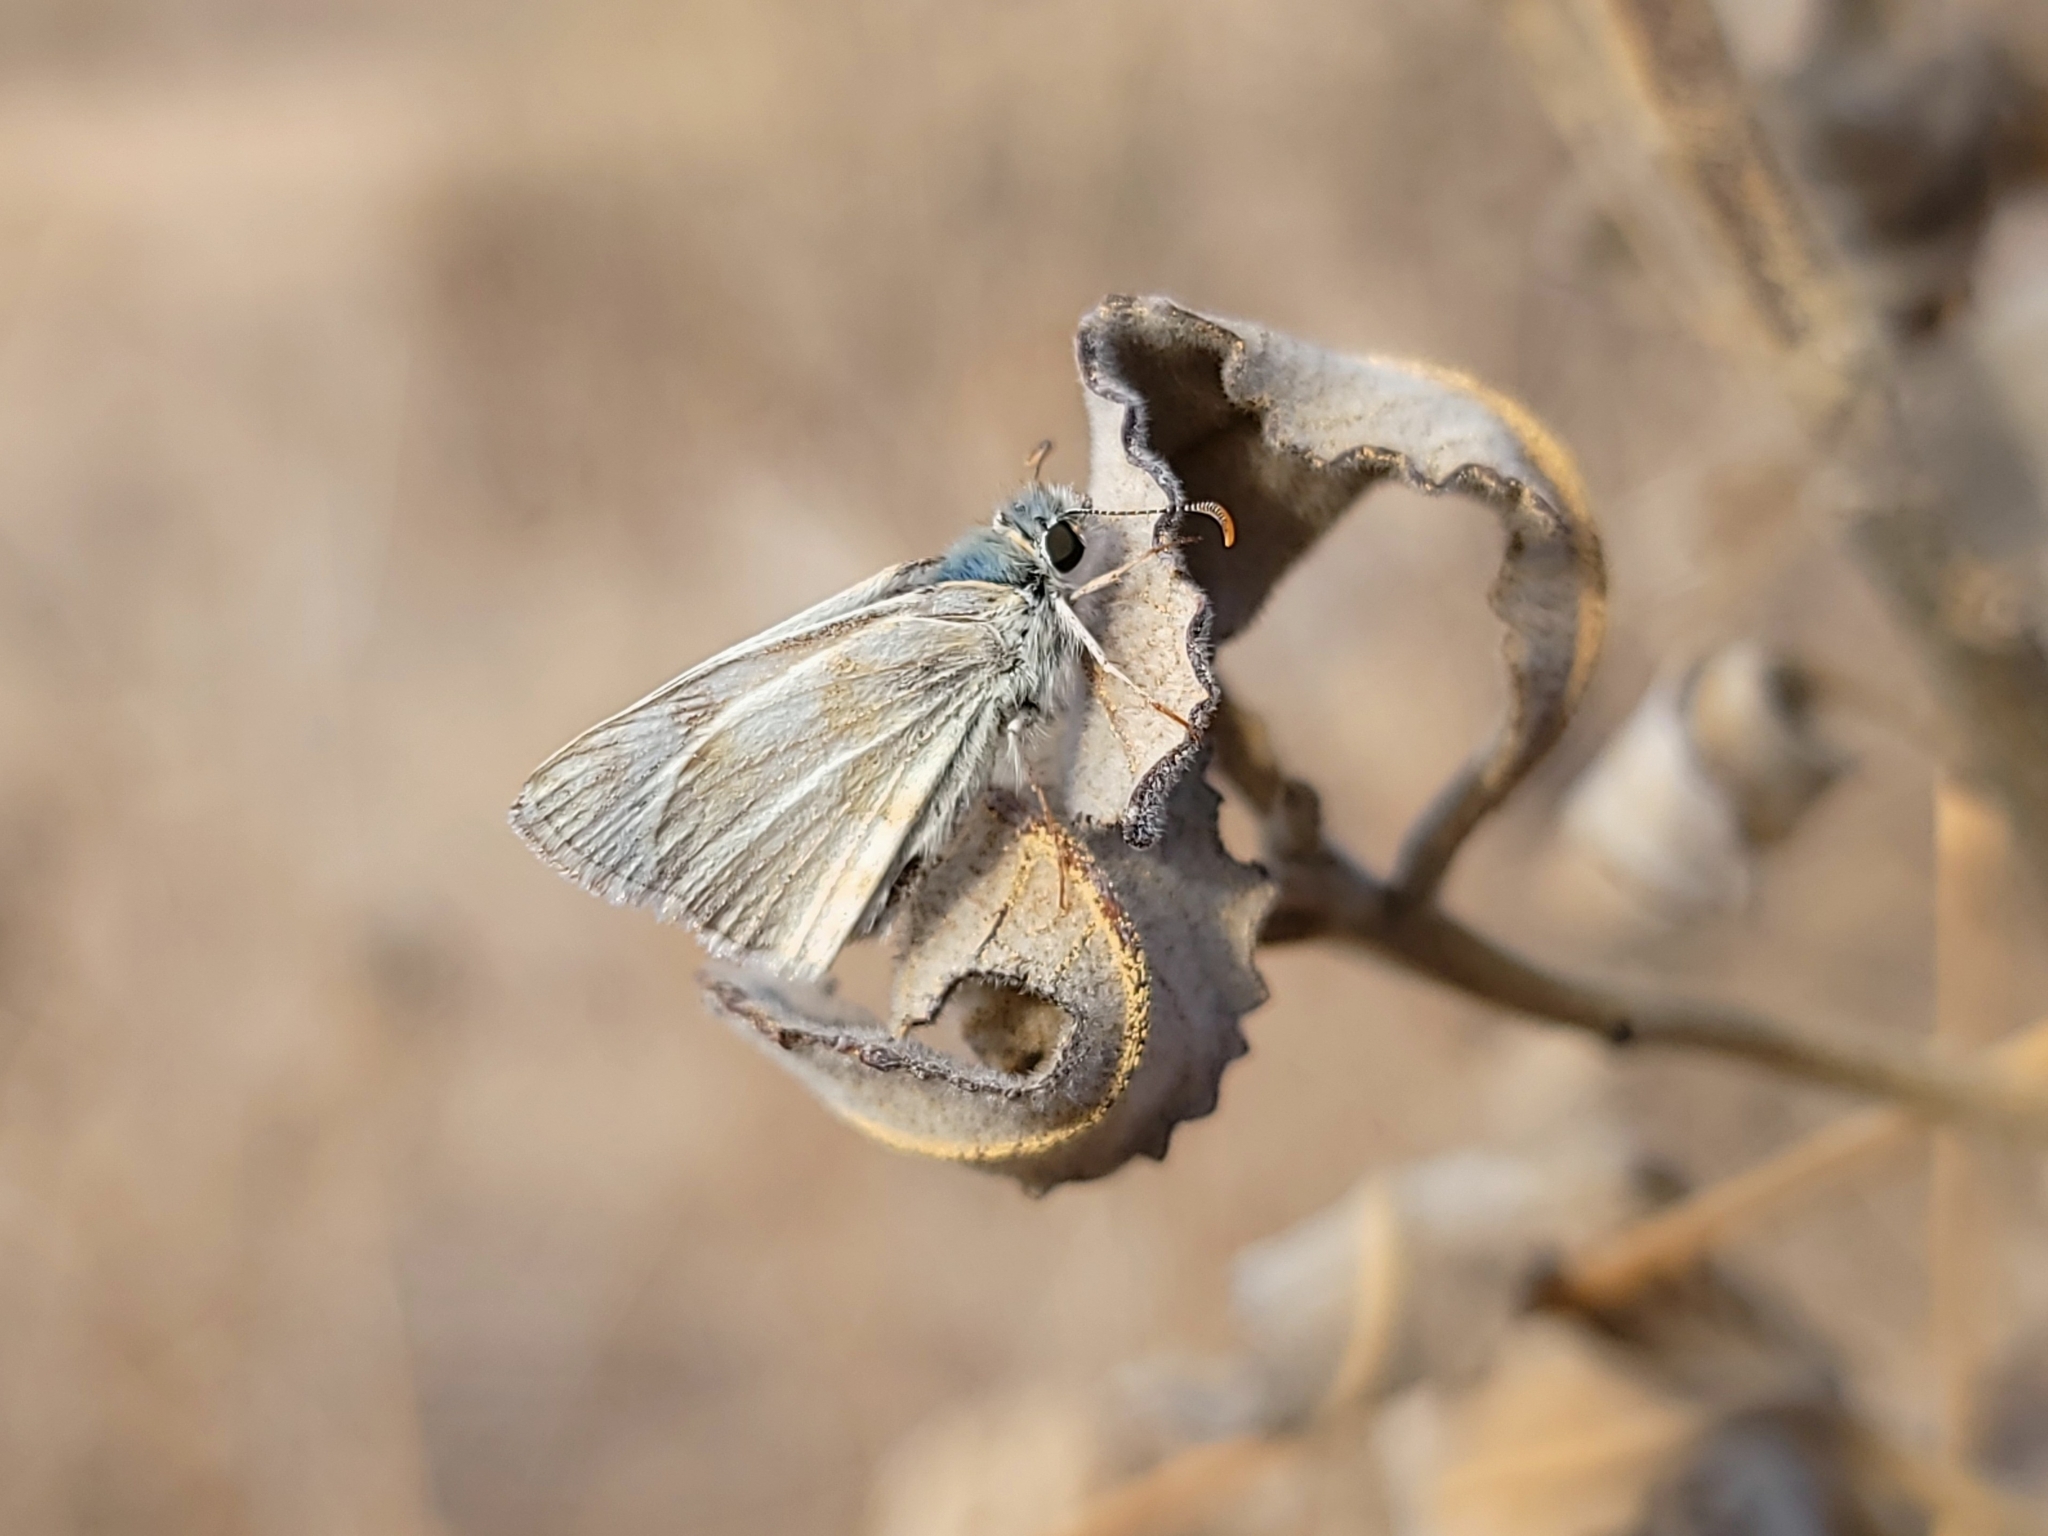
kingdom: Animalia
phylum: Arthropoda
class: Insecta
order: Lepidoptera
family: Hesperiidae
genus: Heliopetes
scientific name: Heliopetes ericetorum
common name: Northern white-skipper
